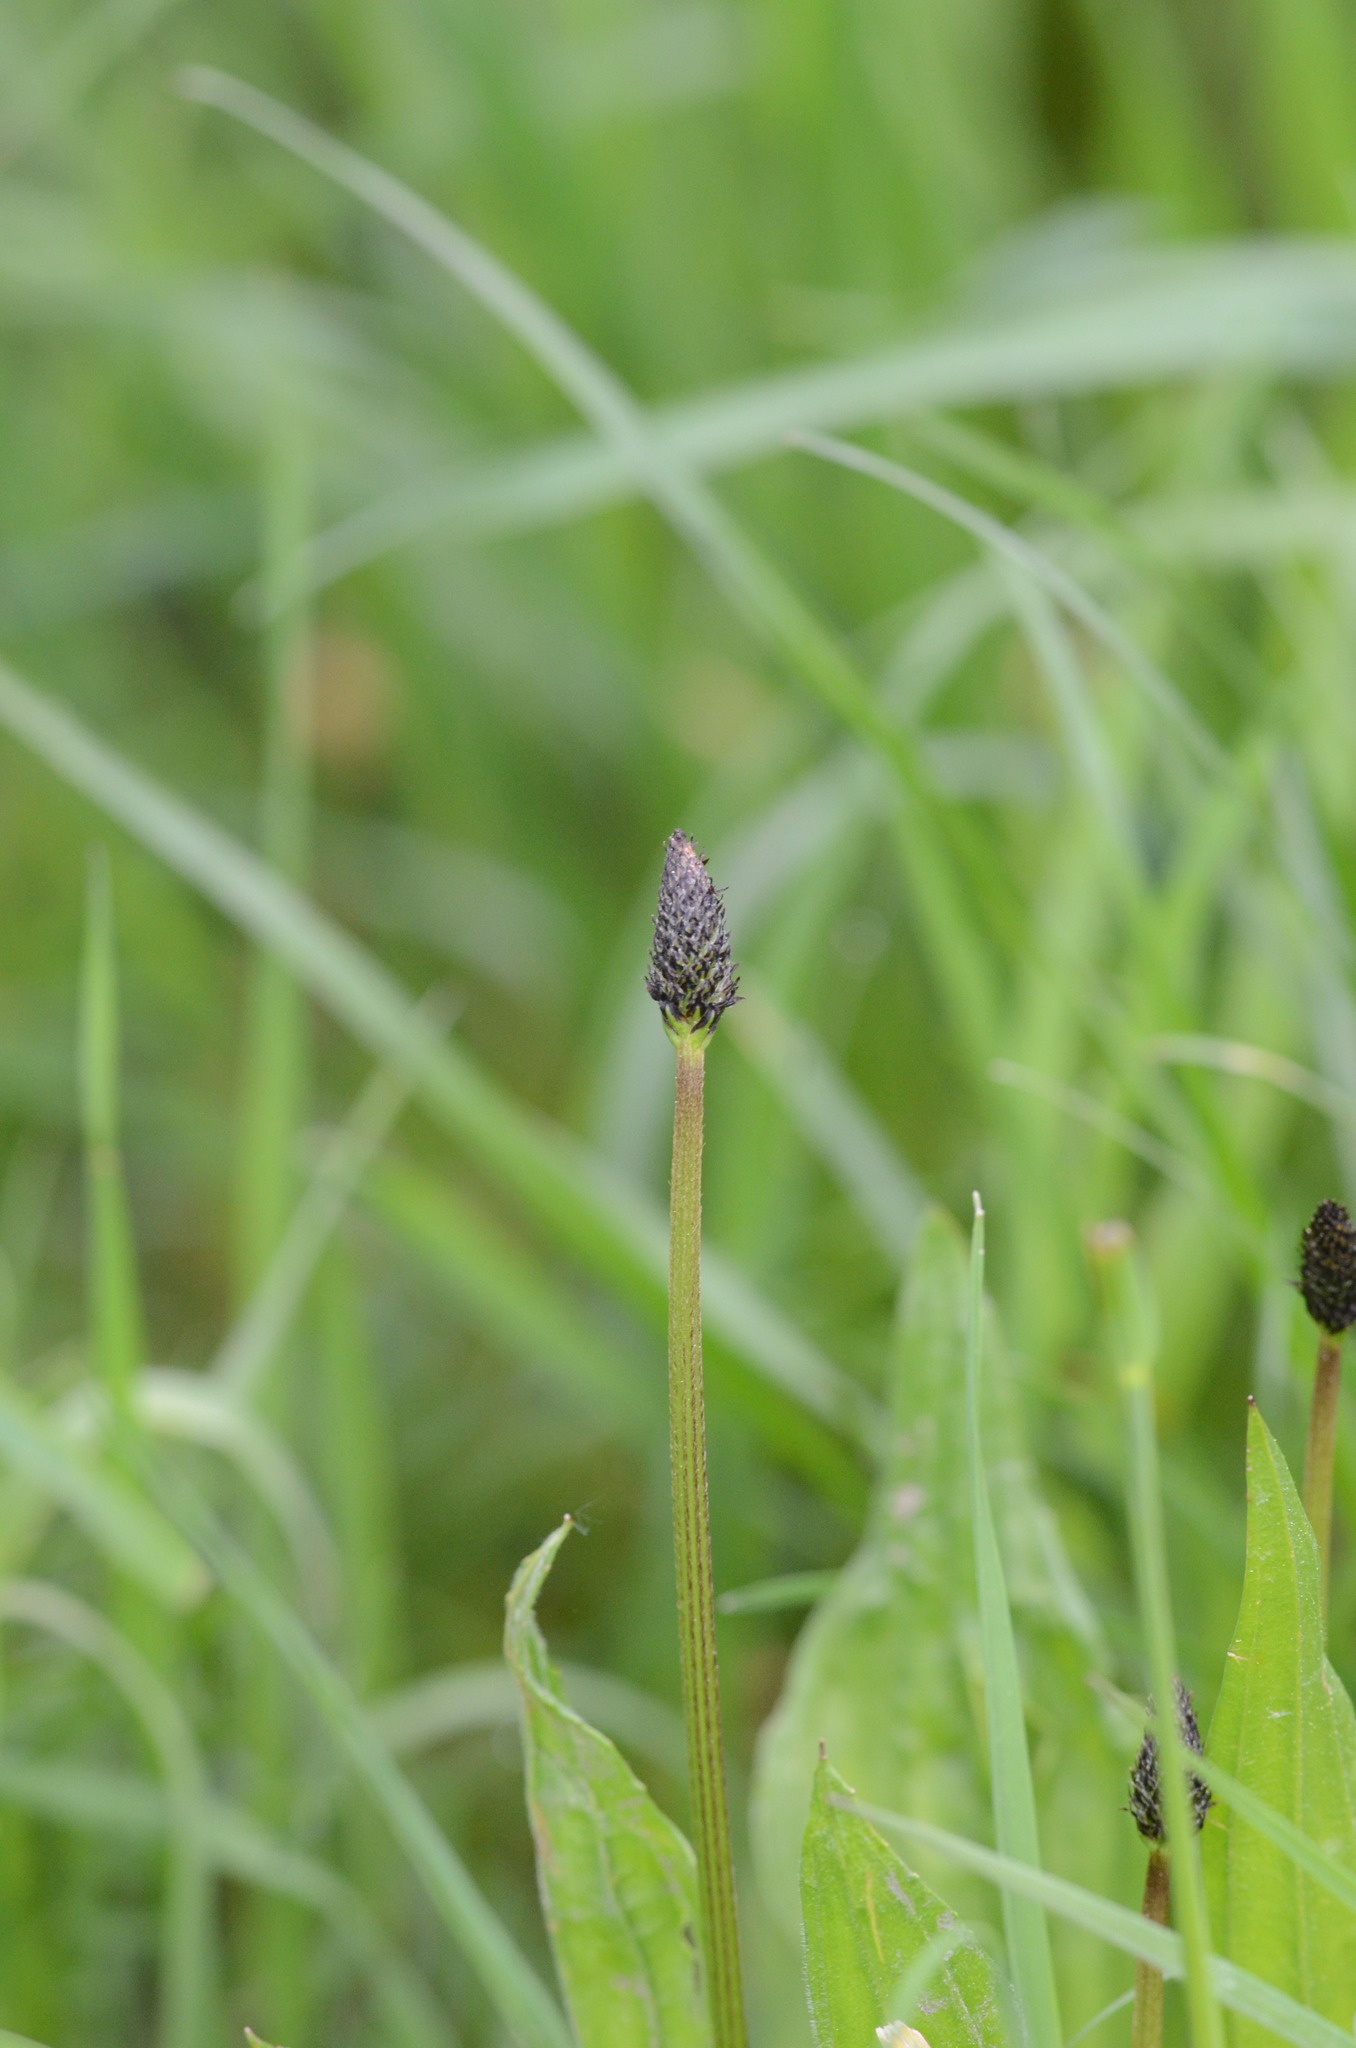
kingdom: Plantae
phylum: Tracheophyta
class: Magnoliopsida
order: Lamiales
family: Plantaginaceae
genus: Plantago
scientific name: Plantago lanceolata
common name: Ribwort plantain
